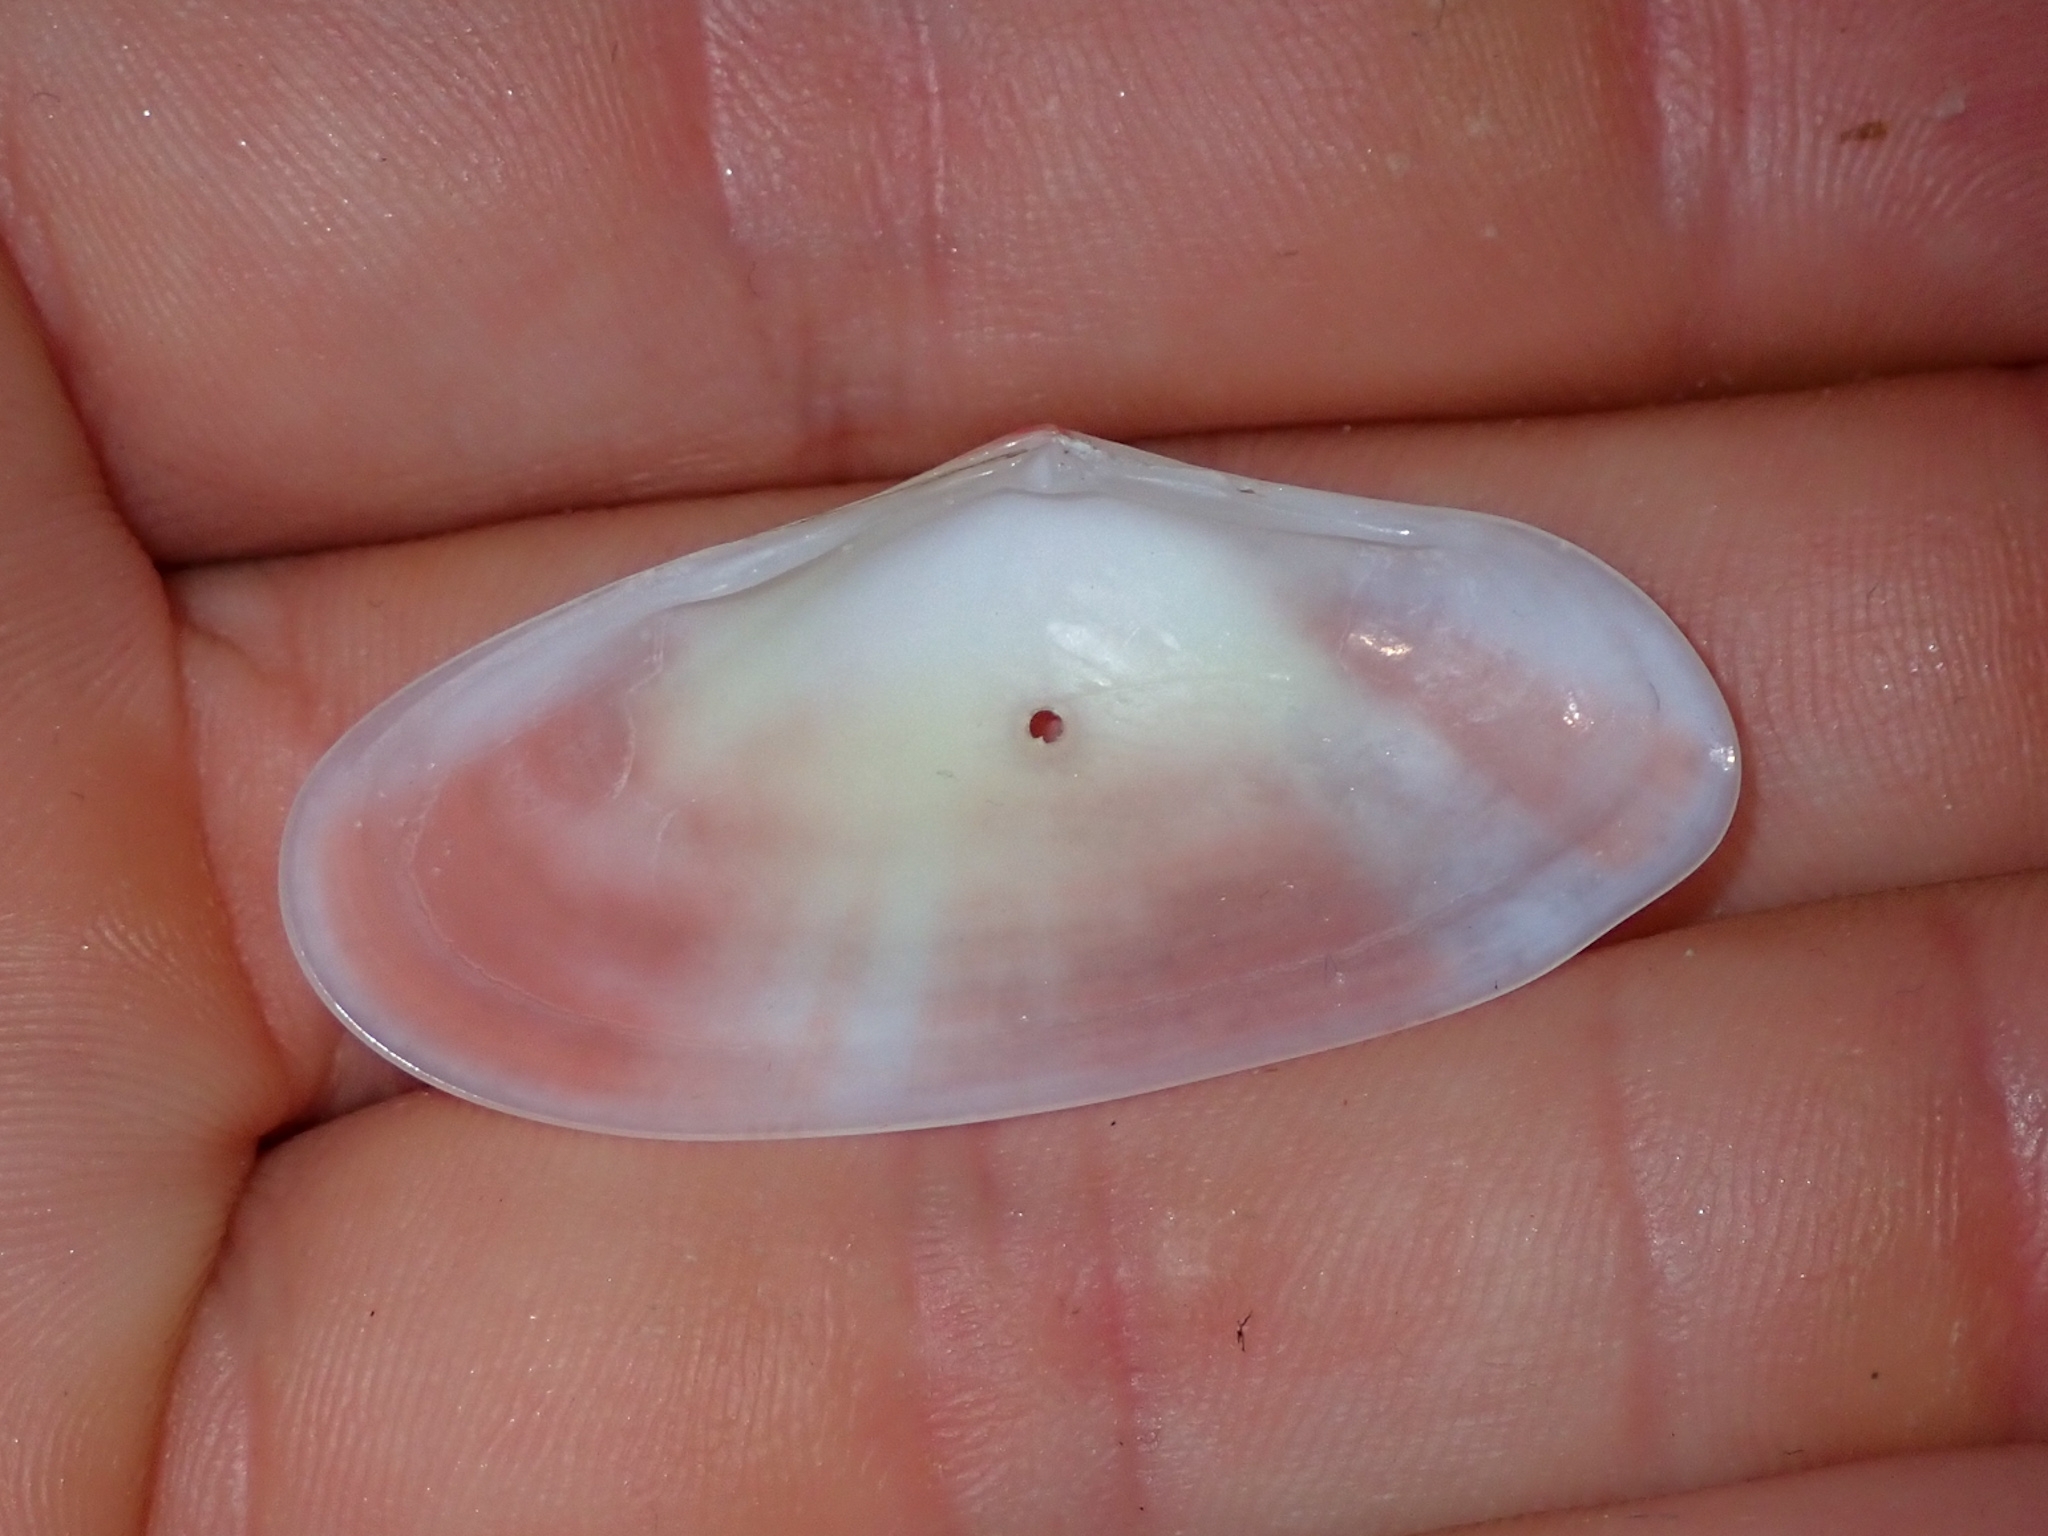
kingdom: Animalia
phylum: Mollusca
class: Bivalvia
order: Cardiida
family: Tellinidae
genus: Tellina
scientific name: Tellina radiata
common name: Sunrise tellin
